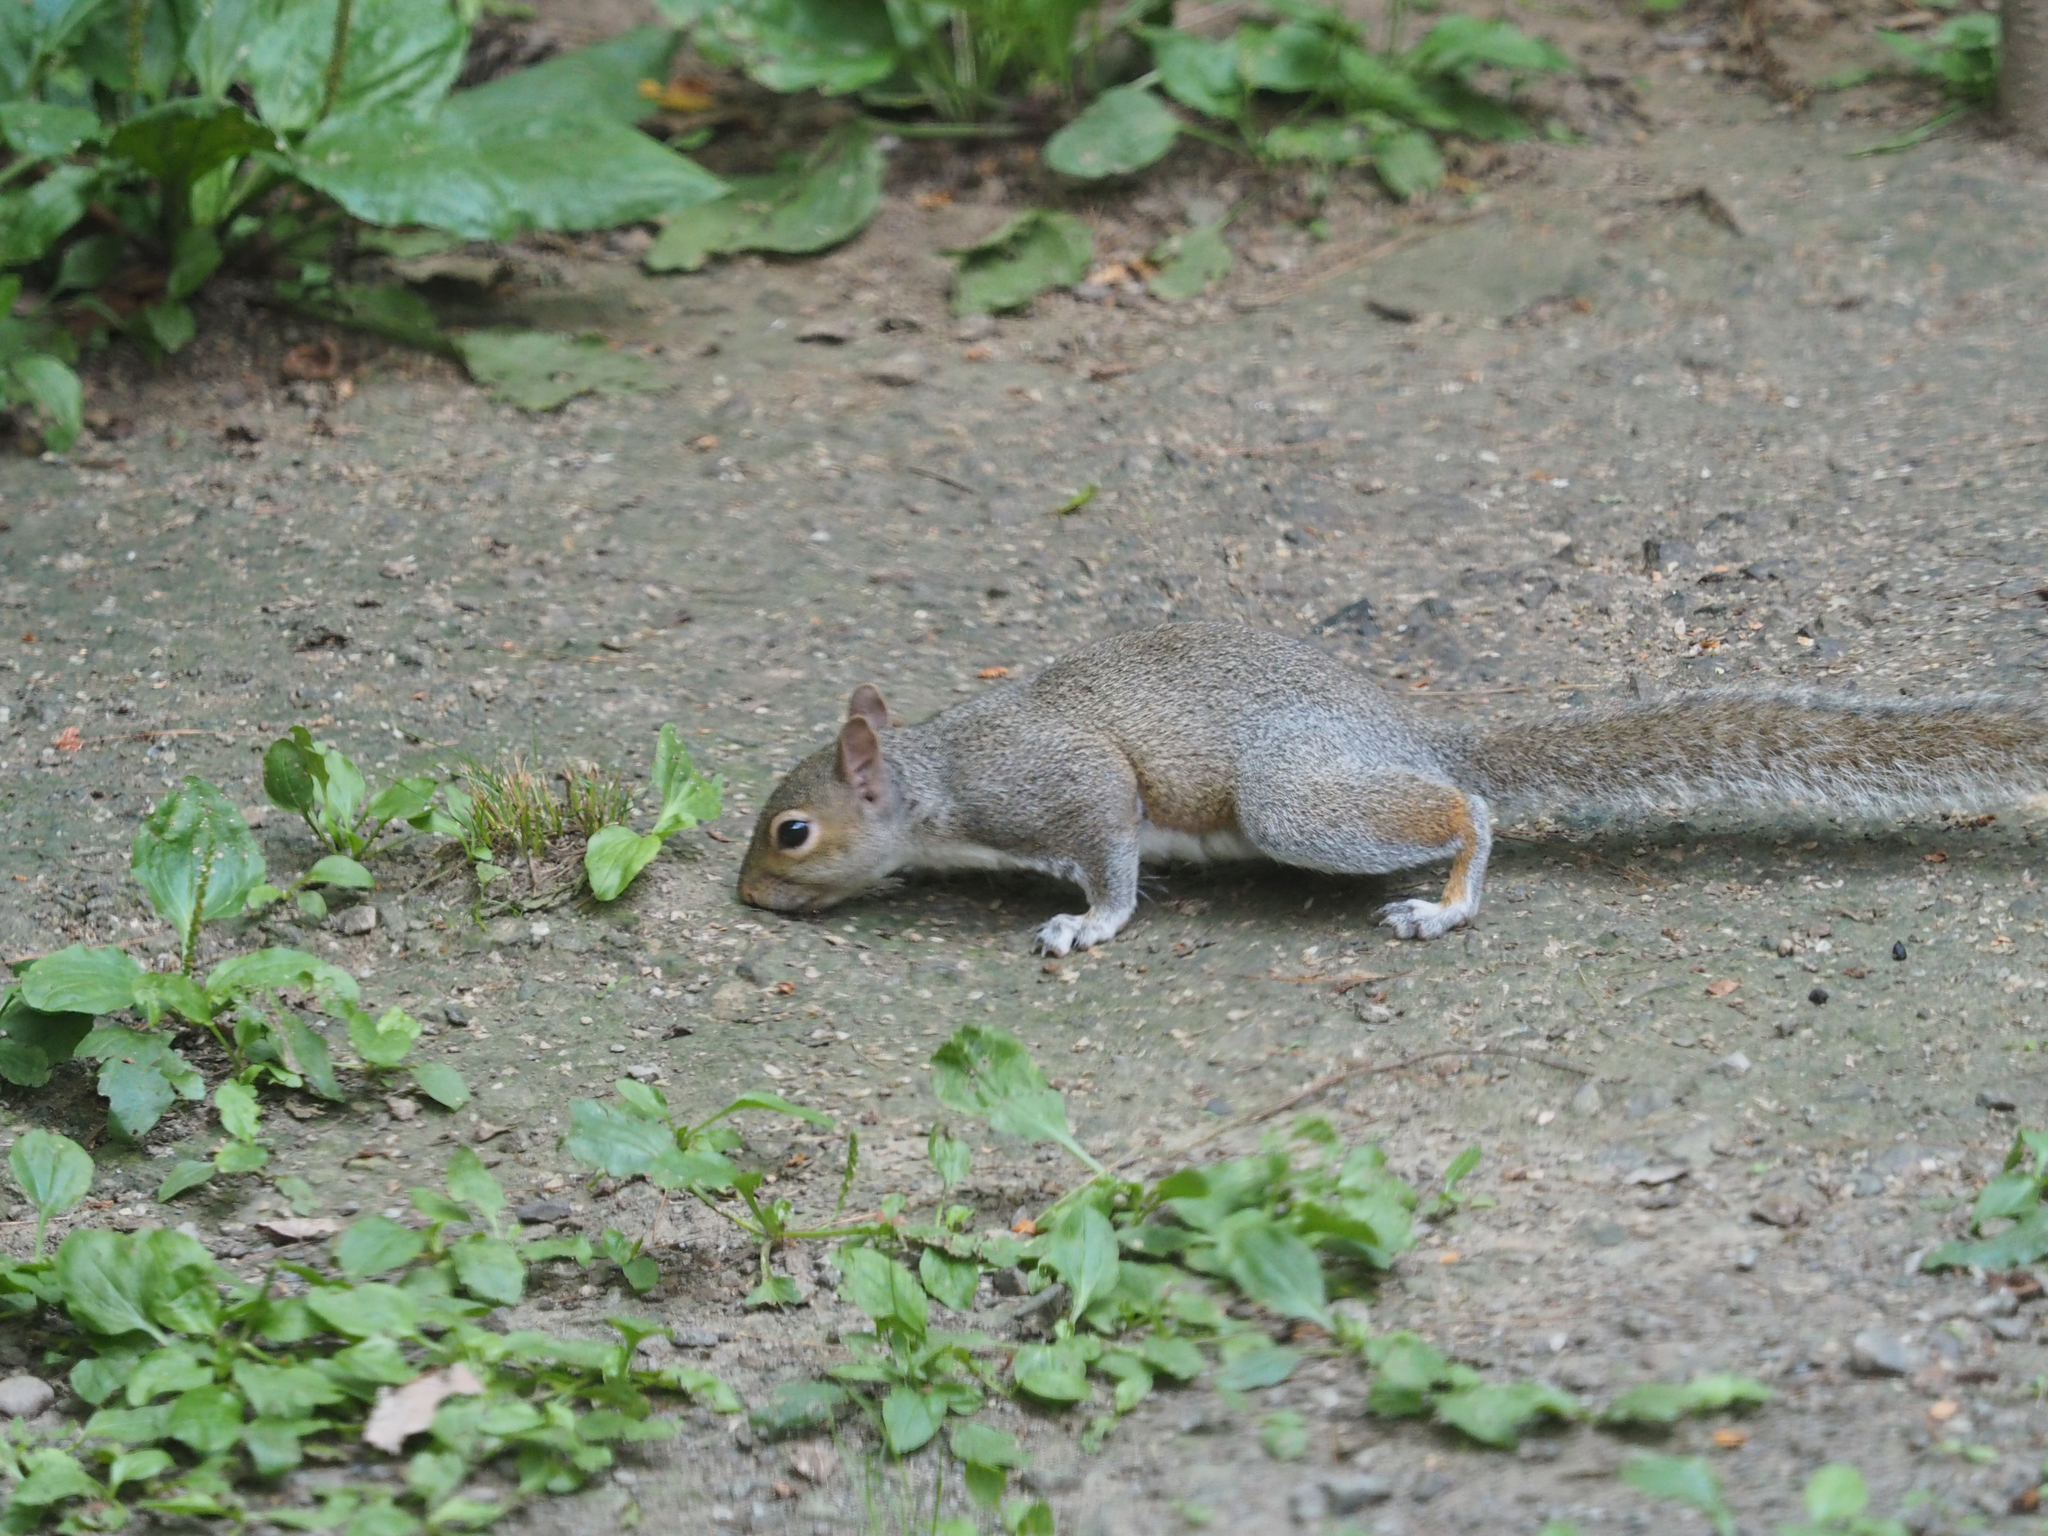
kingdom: Animalia
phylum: Chordata
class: Mammalia
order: Rodentia
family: Sciuridae
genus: Sciurus
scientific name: Sciurus carolinensis
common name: Eastern gray squirrel
